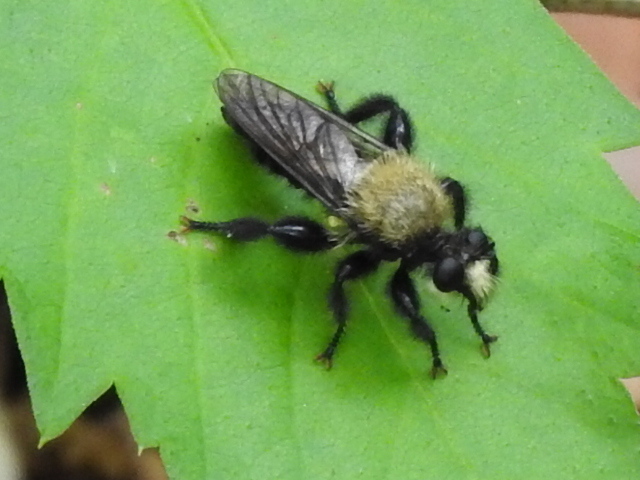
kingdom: Animalia
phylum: Arthropoda
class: Insecta
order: Diptera
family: Asilidae
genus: Laphria
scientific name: Laphria flavicollis
